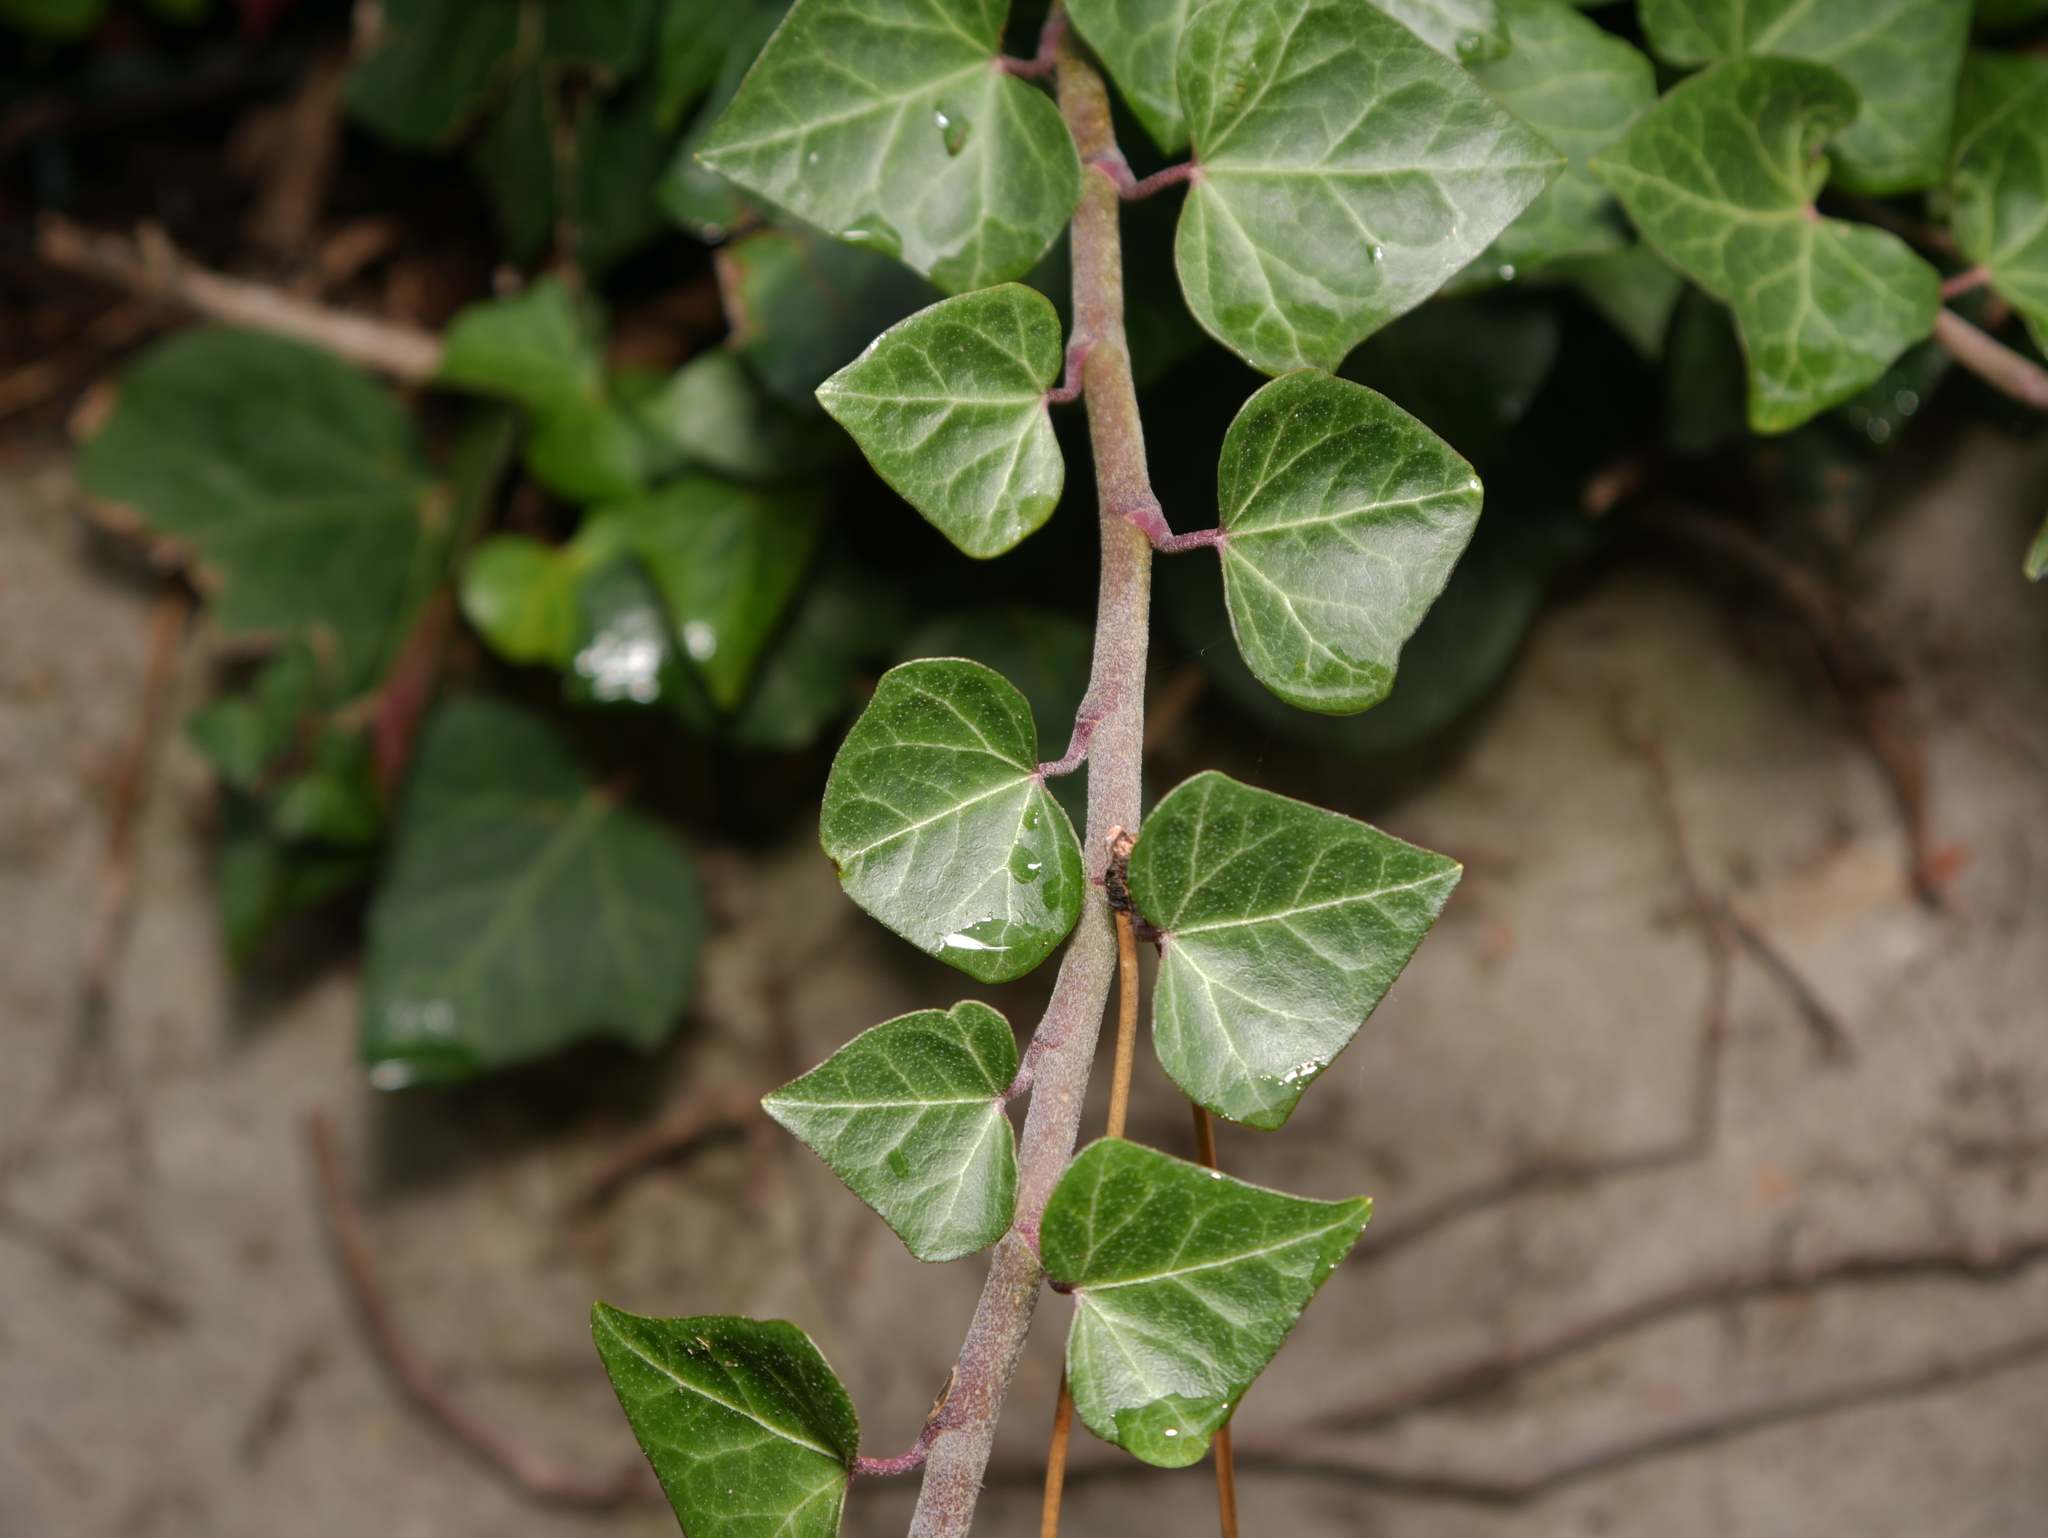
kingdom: Plantae
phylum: Tracheophyta
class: Magnoliopsida
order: Apiales
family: Araliaceae
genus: Hedera
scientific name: Hedera helix
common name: Ivy
